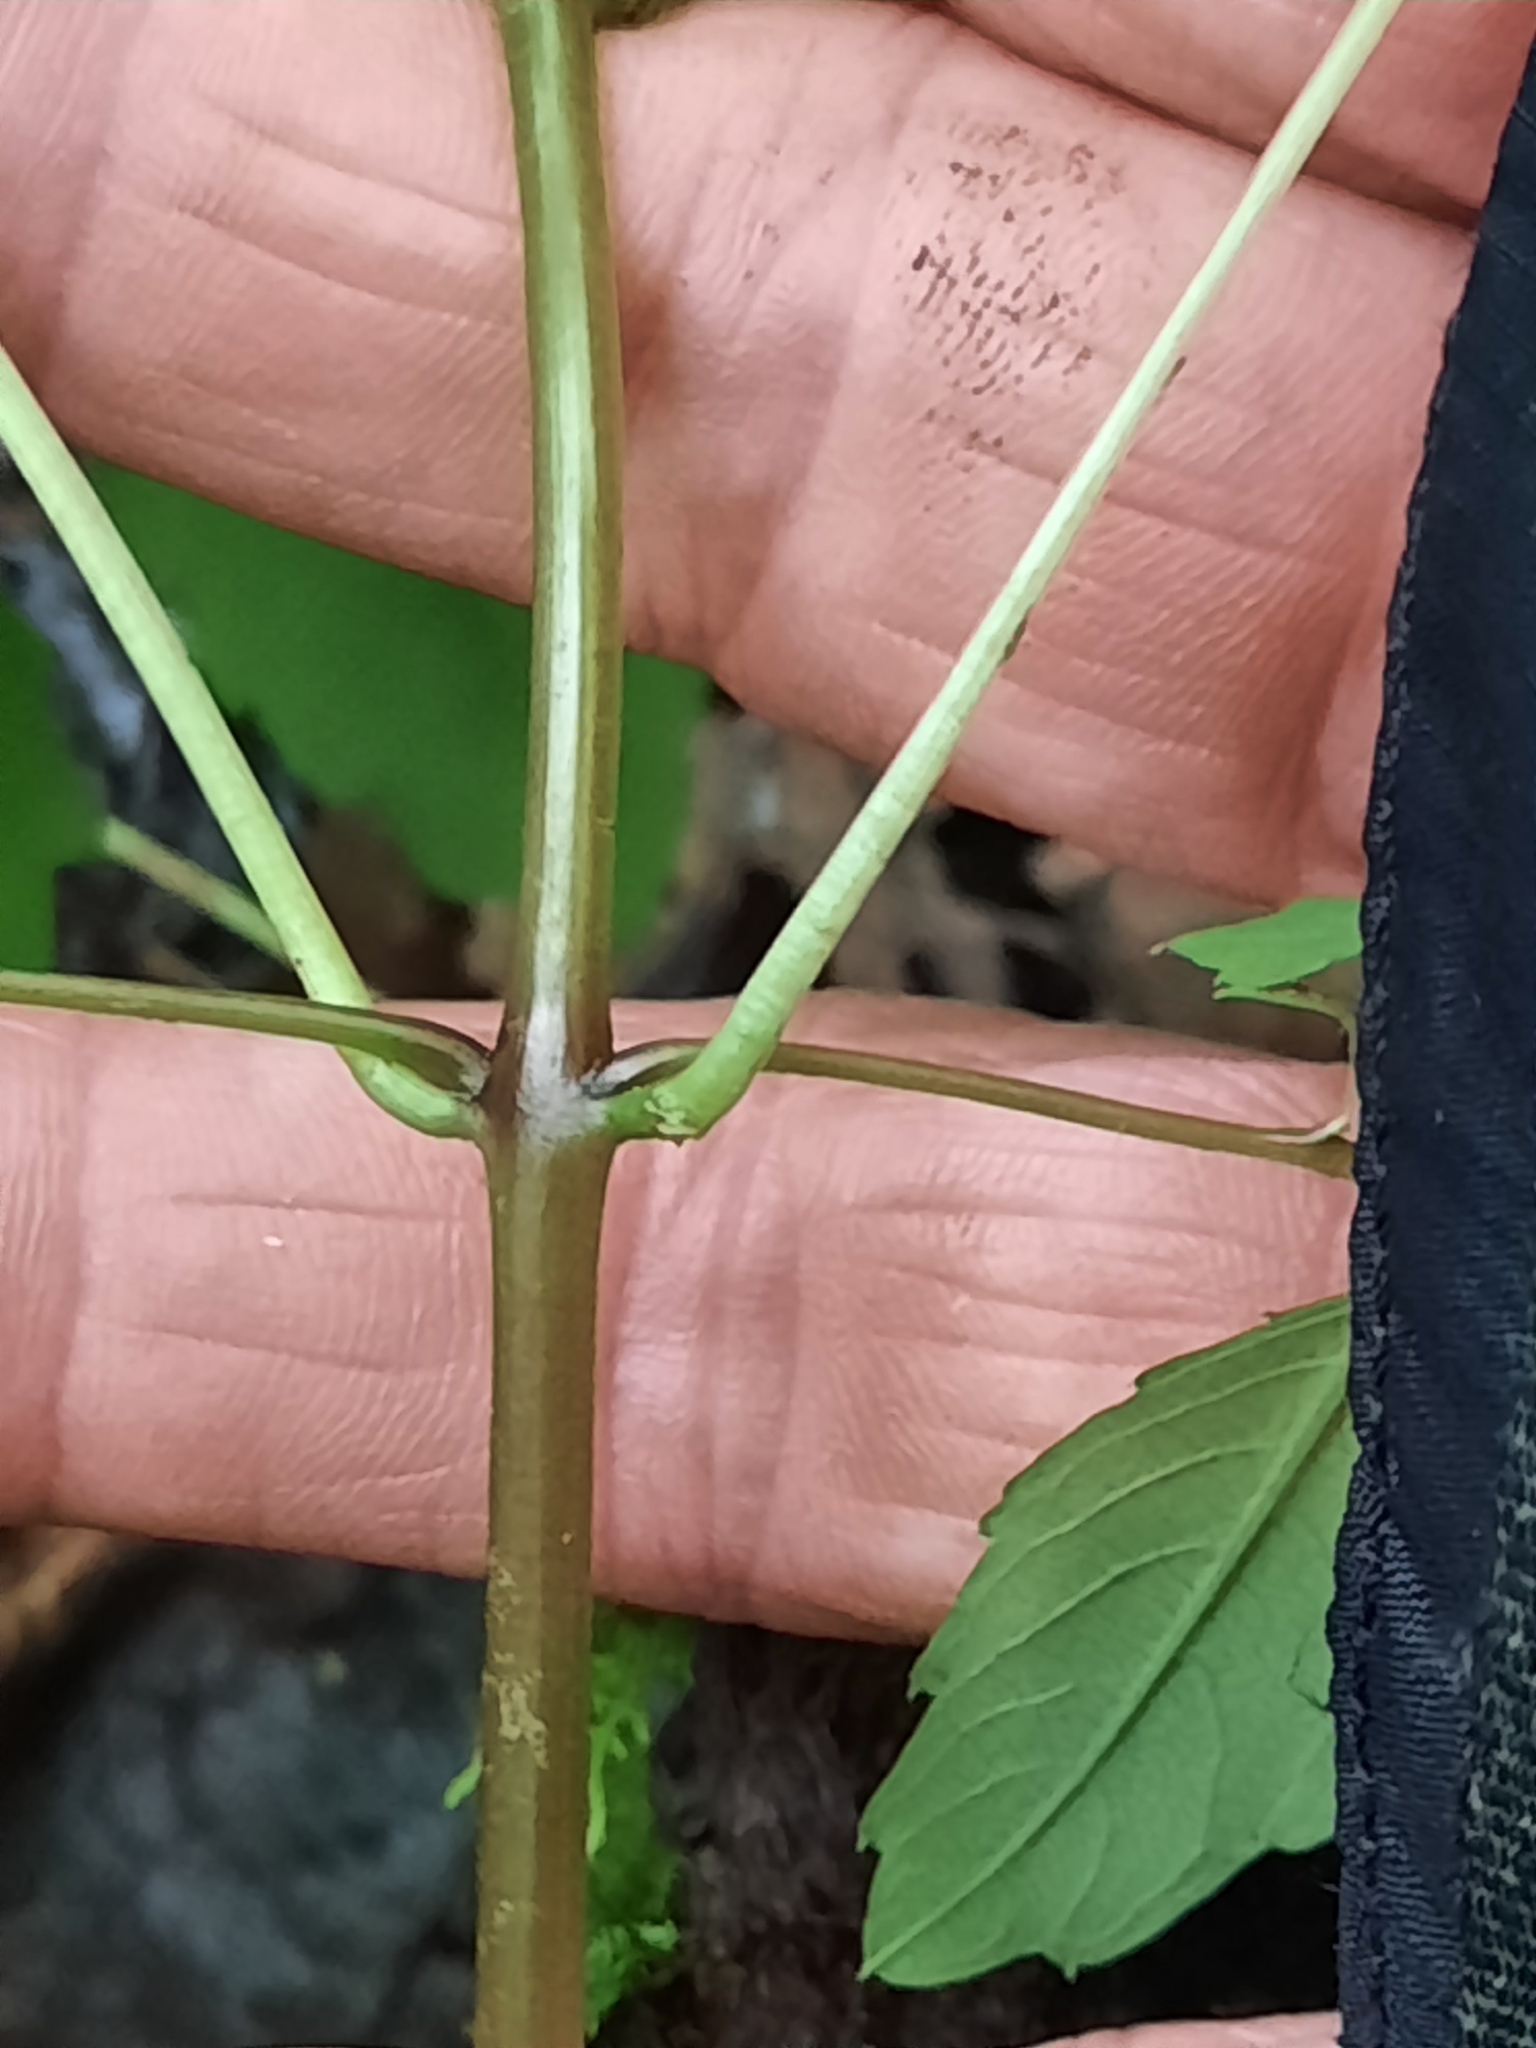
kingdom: Plantae
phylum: Tracheophyta
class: Magnoliopsida
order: Ericales
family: Balsaminaceae
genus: Impatiens
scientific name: Impatiens capensis
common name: Orange balsam
